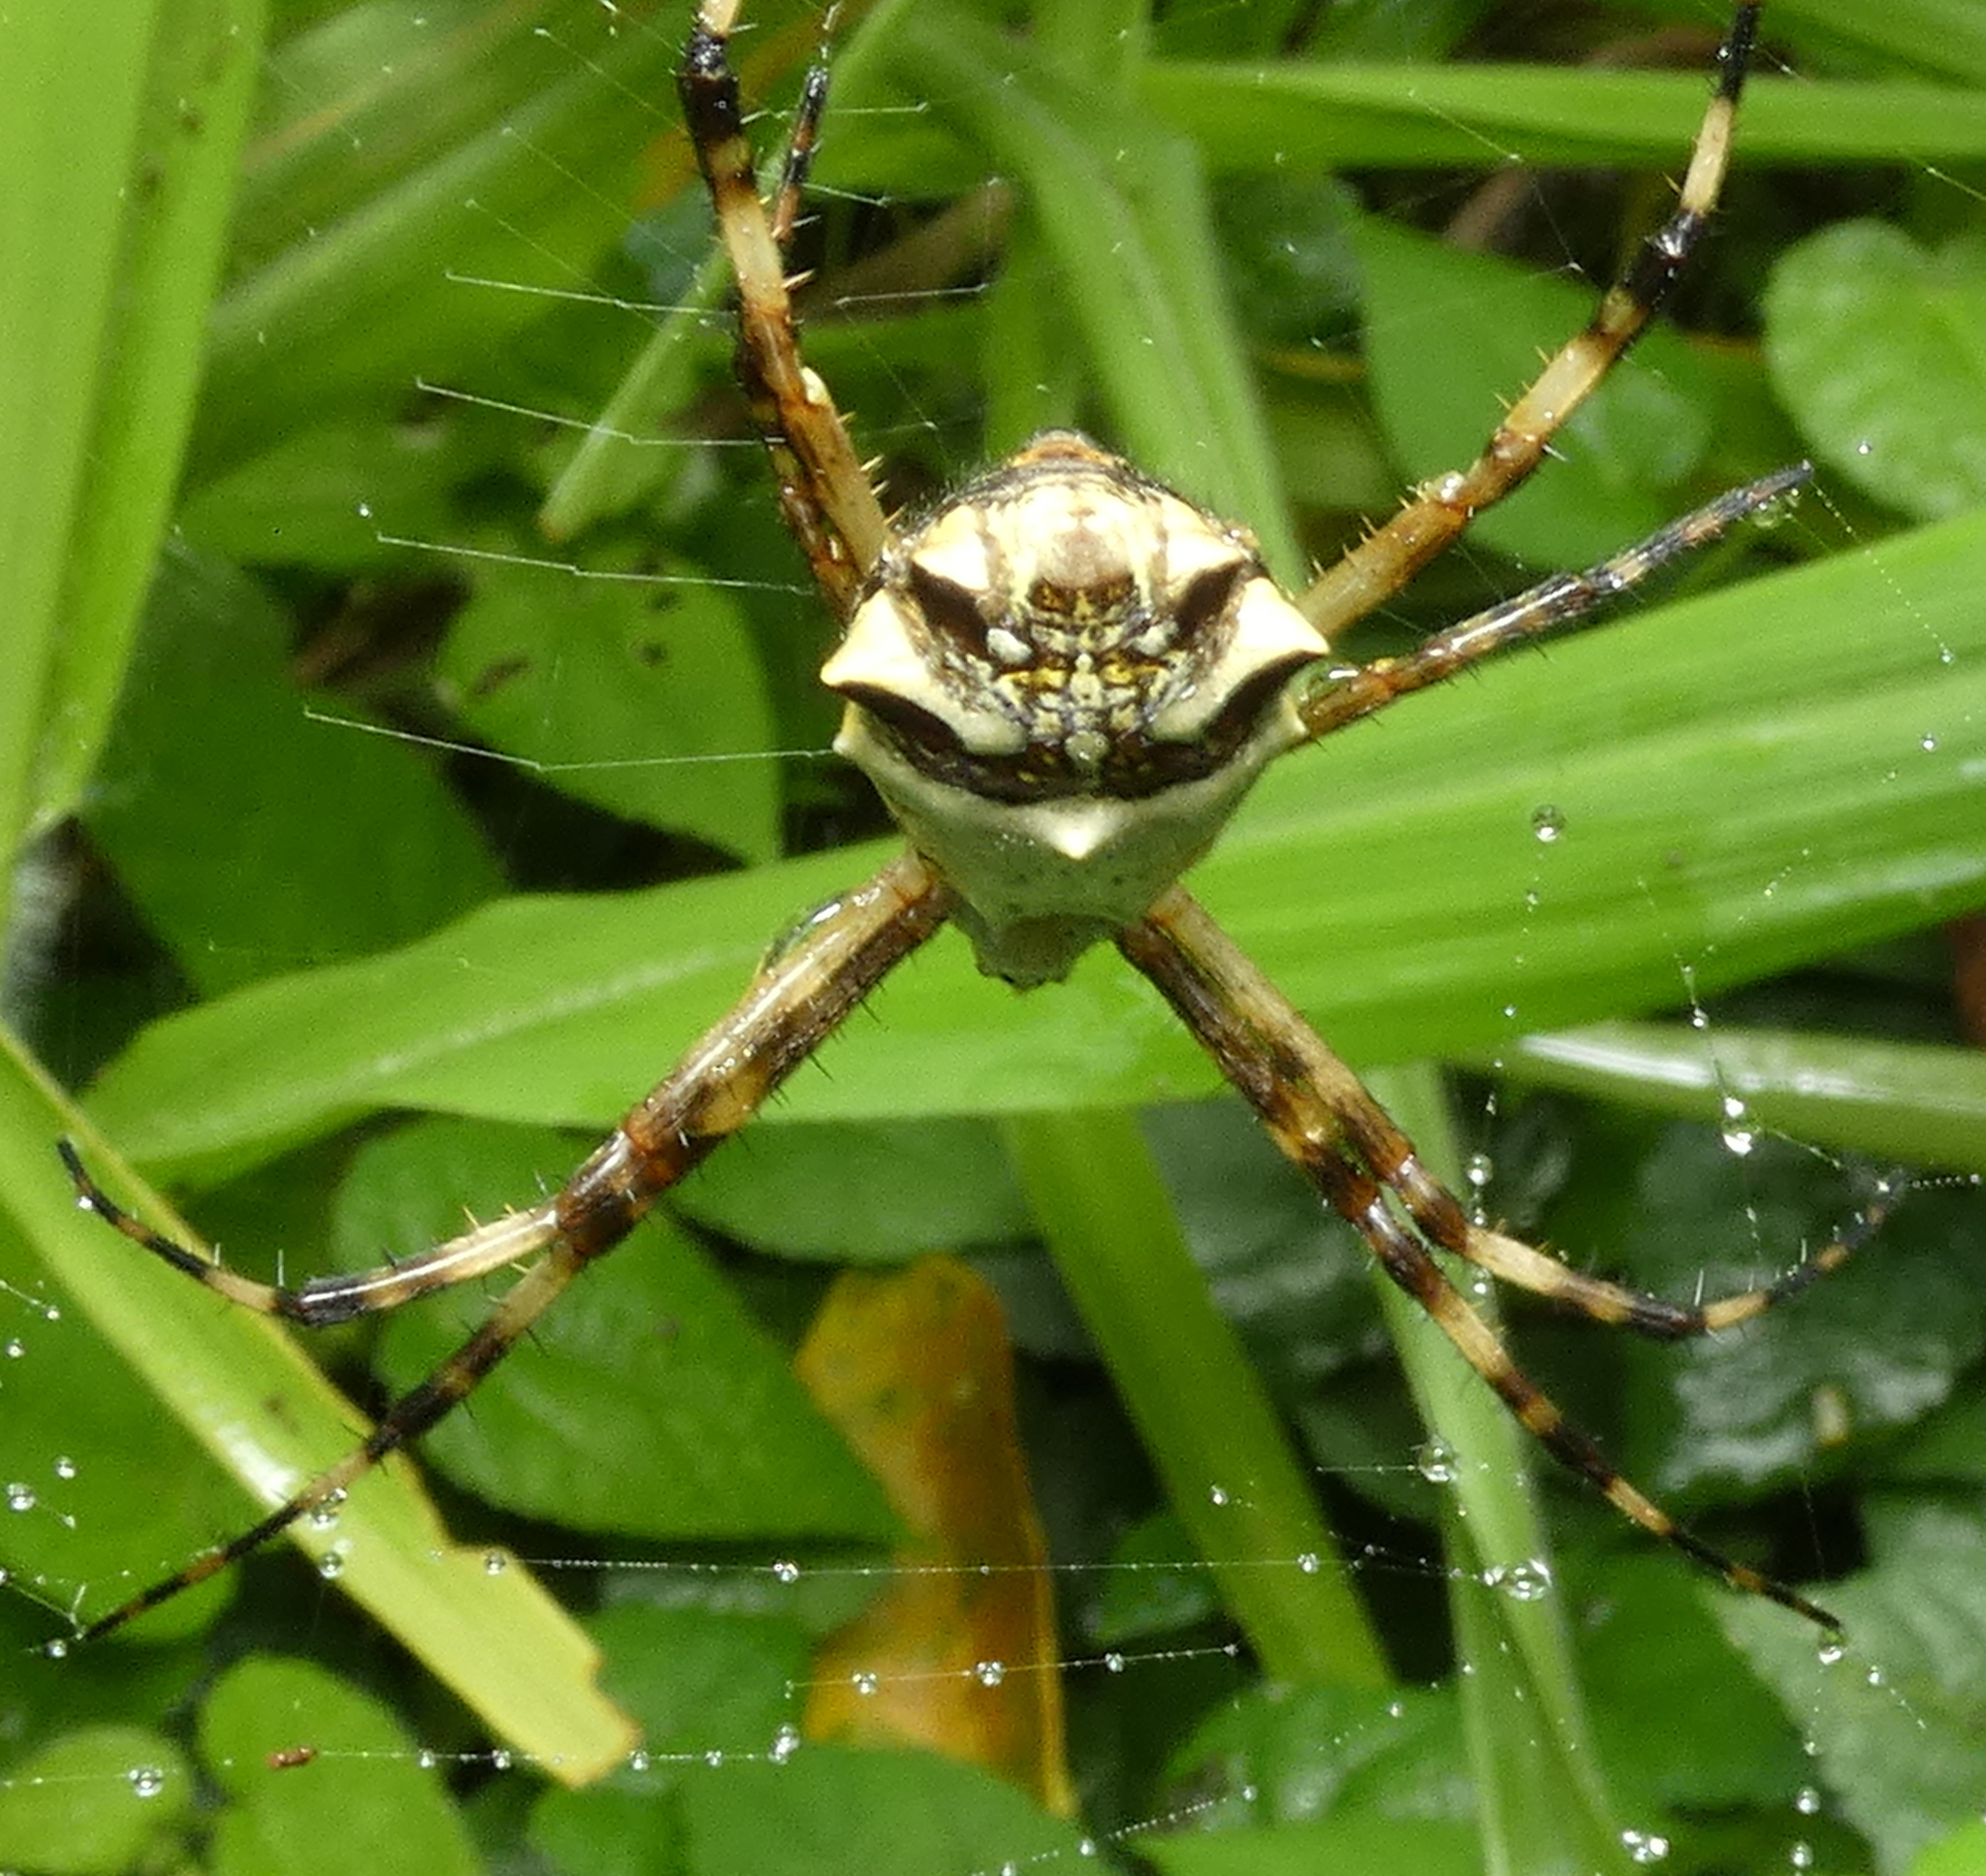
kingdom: Animalia
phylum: Arthropoda
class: Arachnida
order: Araneae
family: Araneidae
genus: Argiope
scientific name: Argiope argentata
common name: Orb weavers
